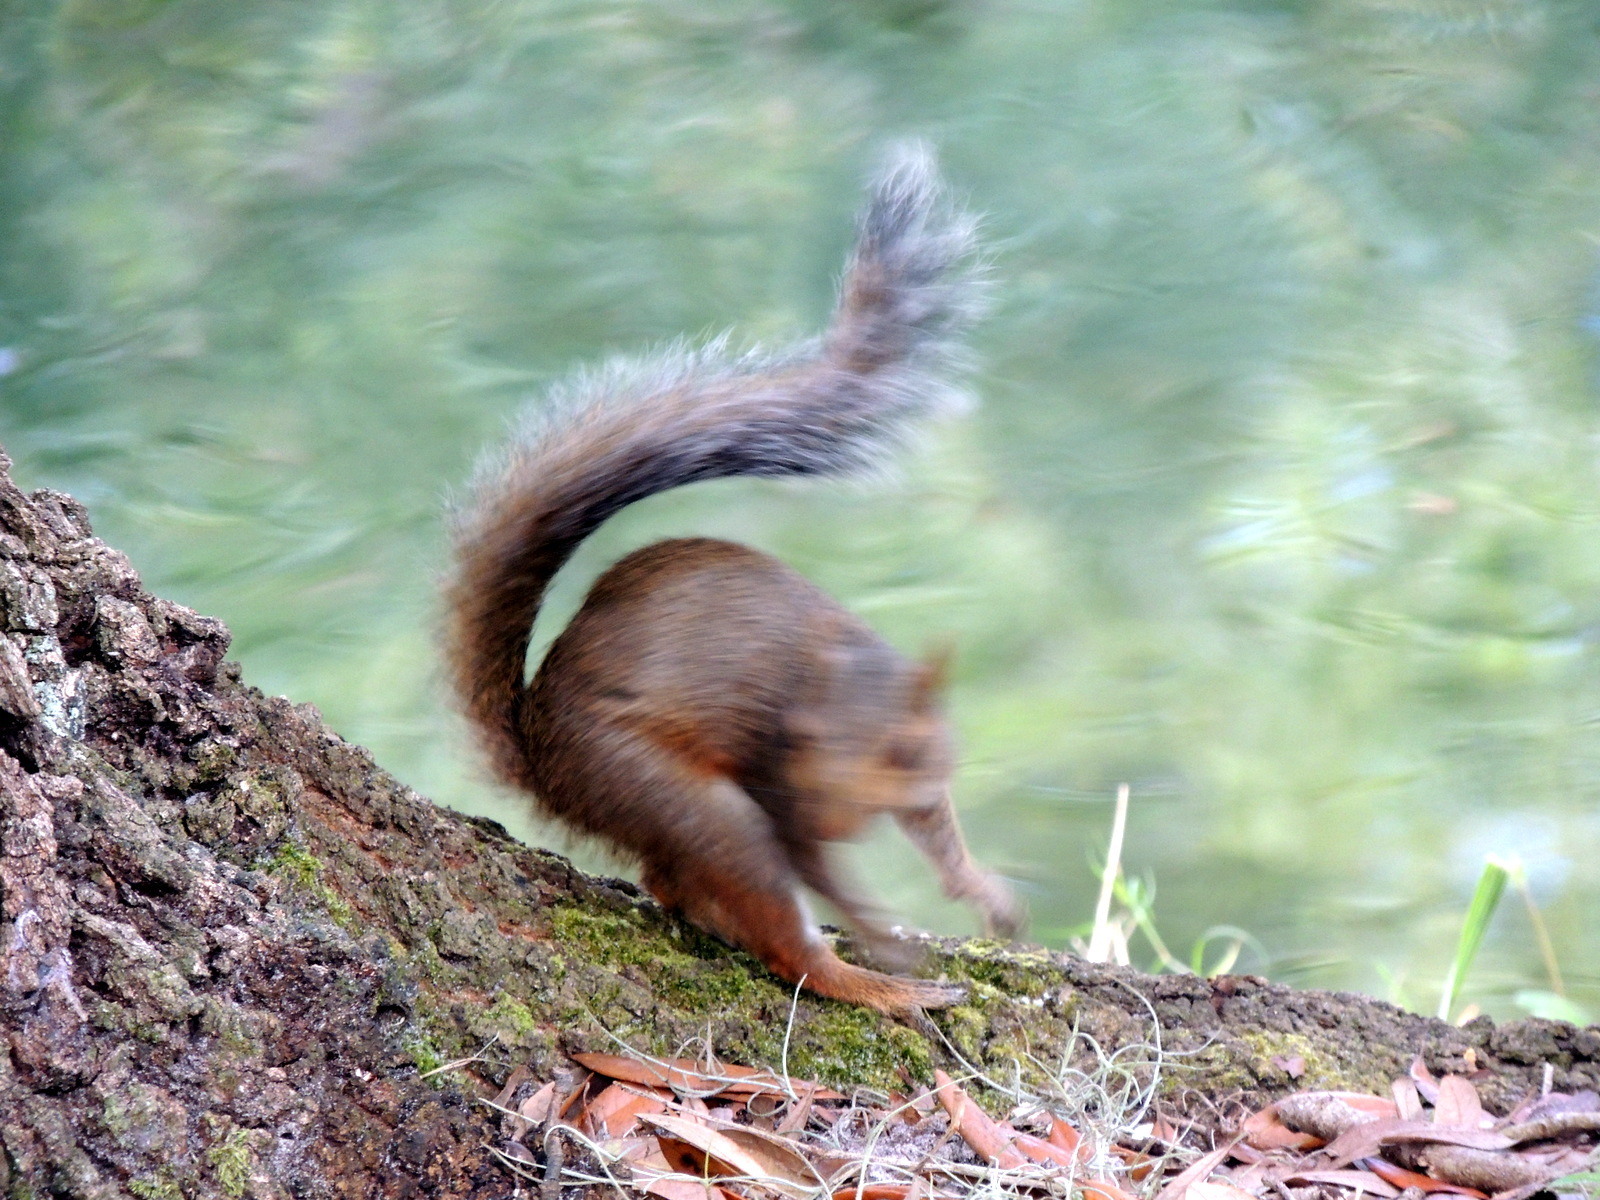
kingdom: Animalia
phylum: Chordata
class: Mammalia
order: Rodentia
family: Sciuridae
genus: Sciurus
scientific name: Sciurus carolinensis
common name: Eastern gray squirrel
